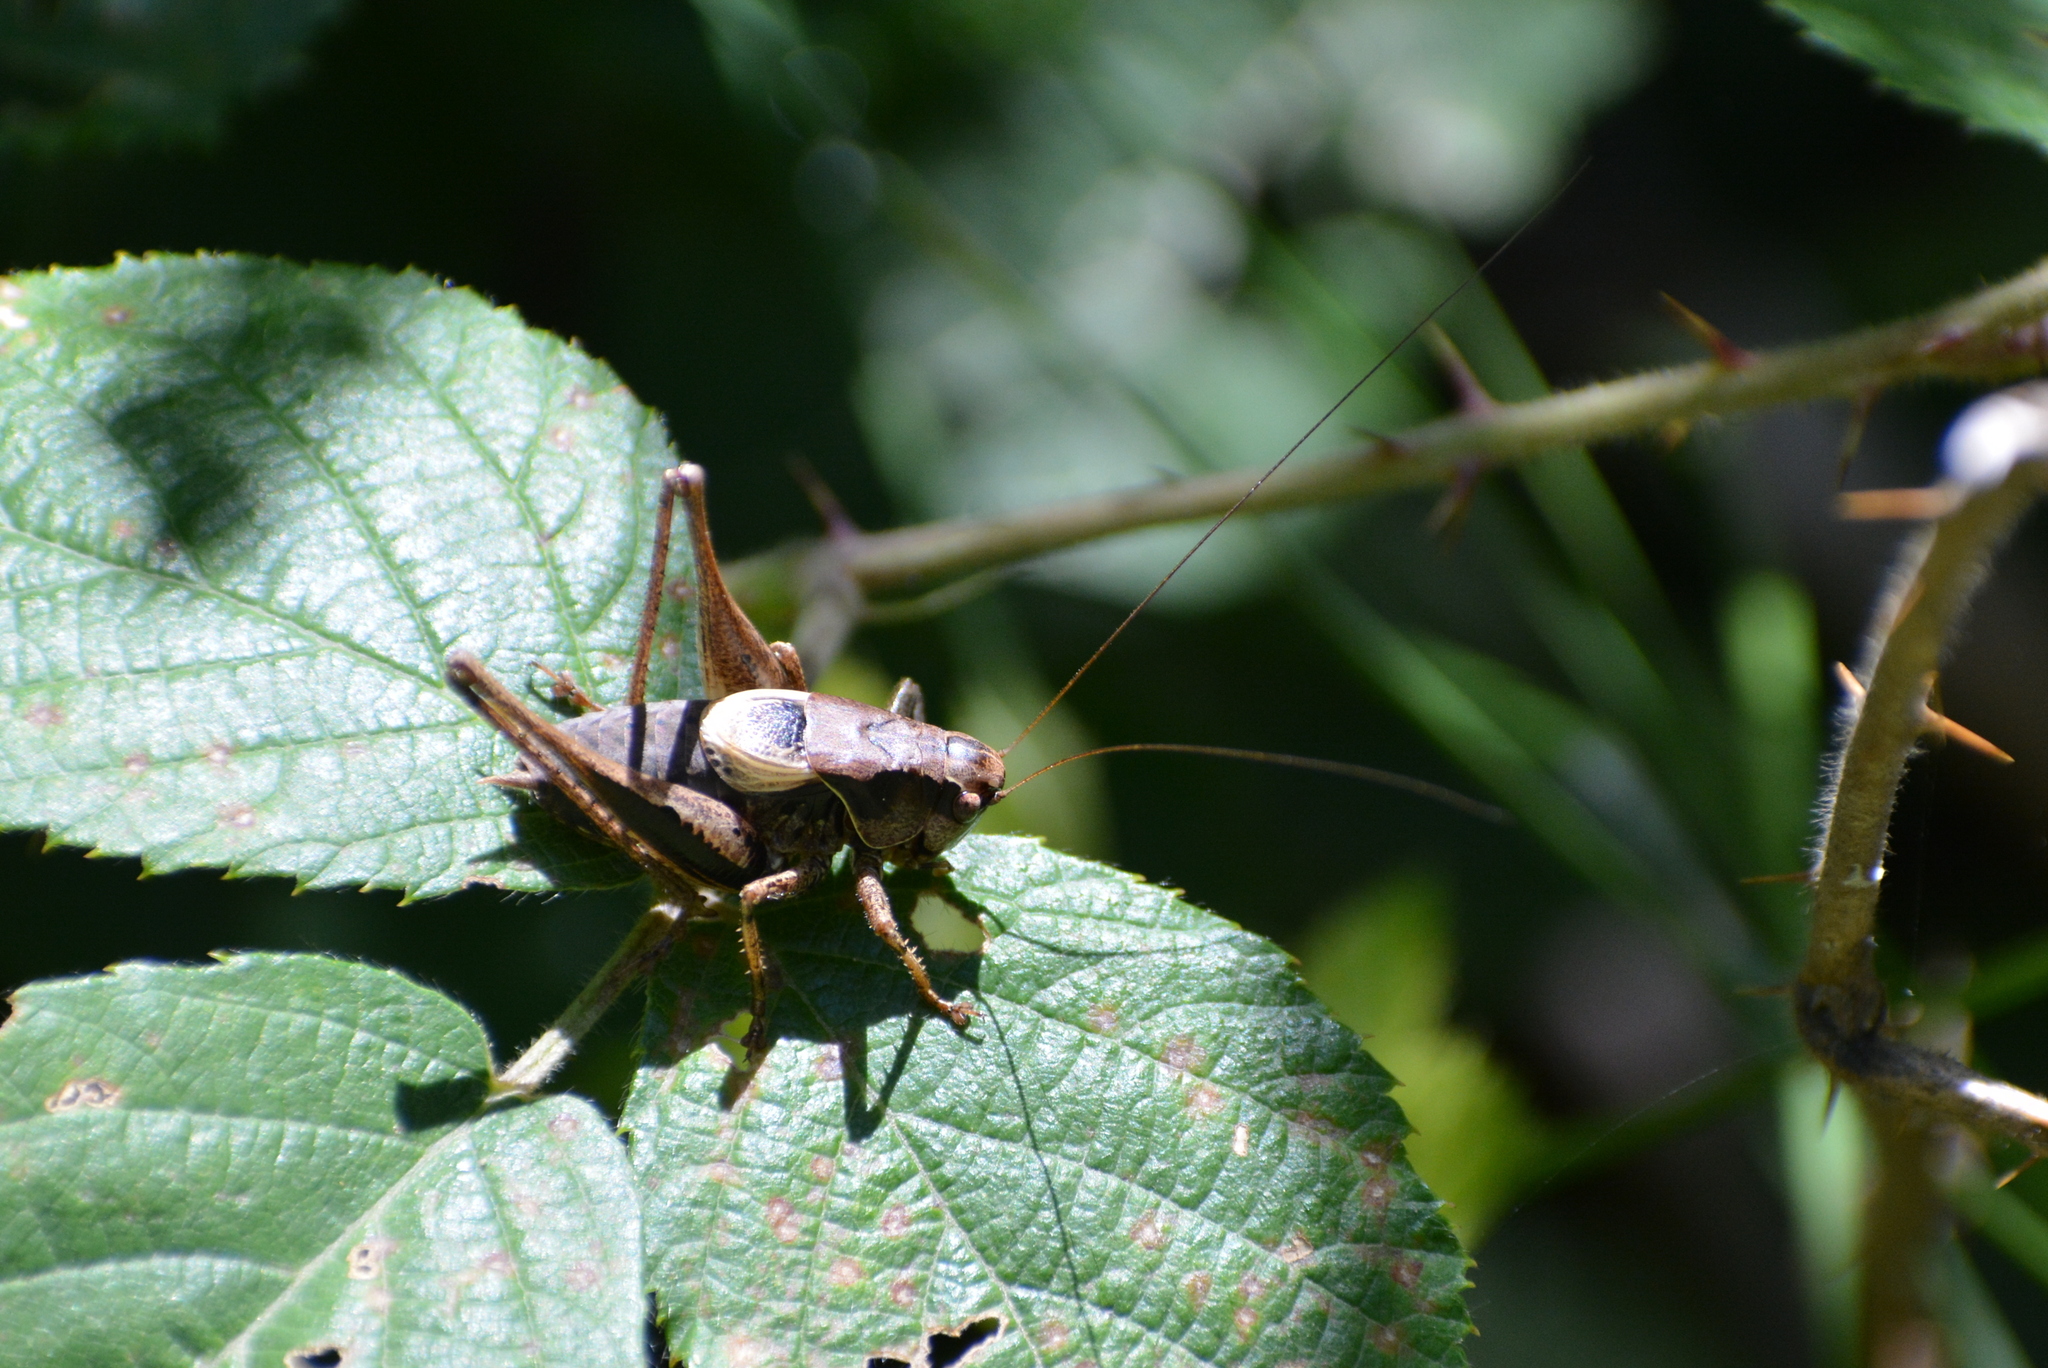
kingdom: Animalia
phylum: Arthropoda
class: Insecta
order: Orthoptera
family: Tettigoniidae
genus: Pholidoptera
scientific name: Pholidoptera griseoaptera
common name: Dark bush-cricket
